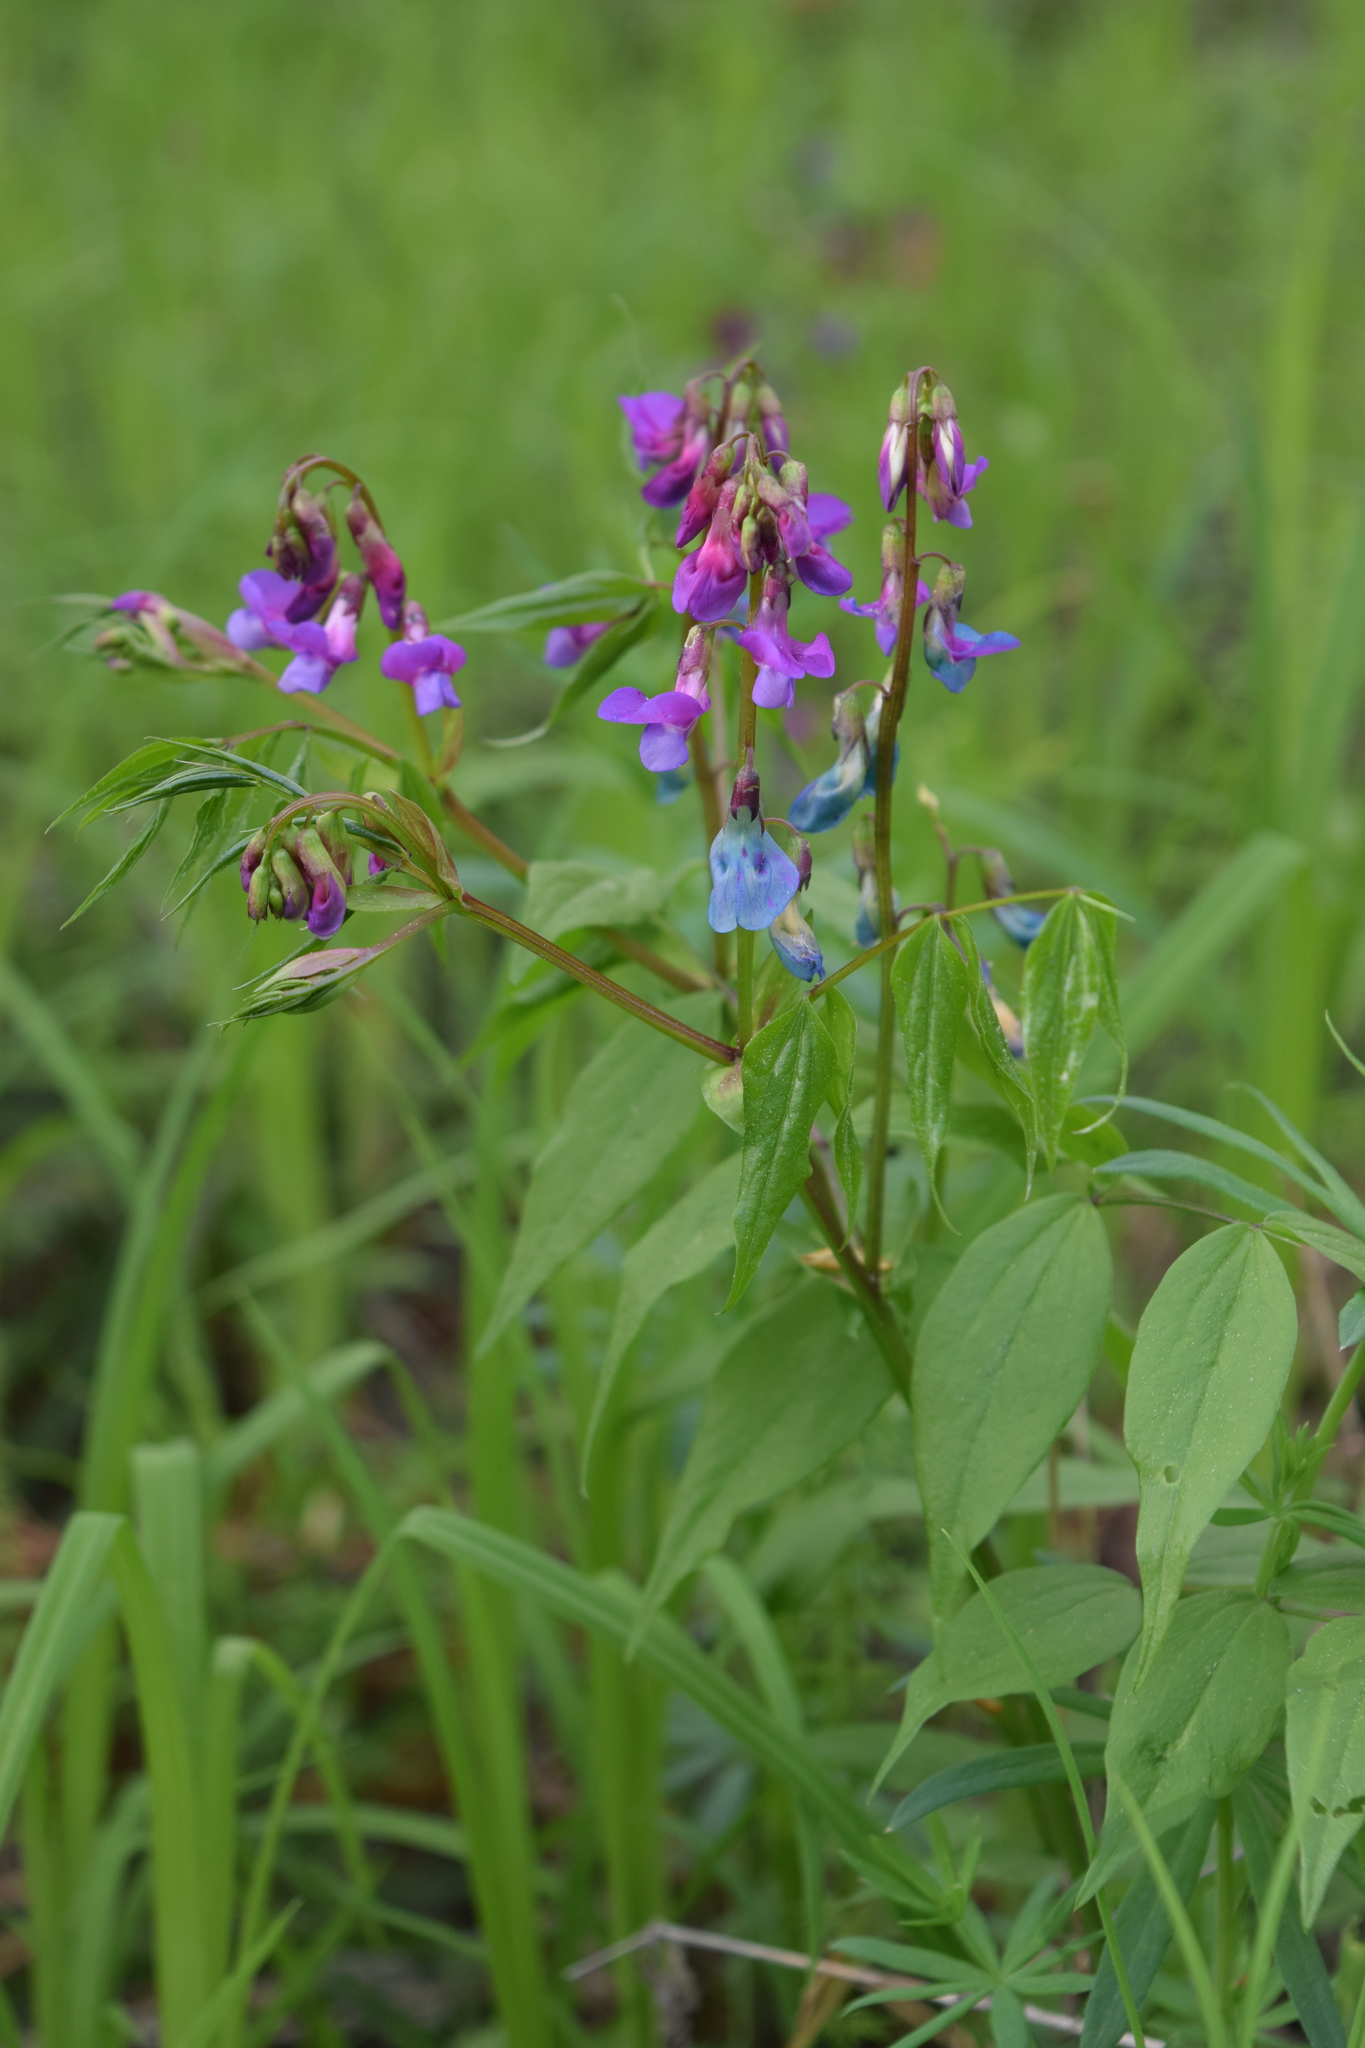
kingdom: Plantae
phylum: Tracheophyta
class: Magnoliopsida
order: Fabales
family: Fabaceae
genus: Lathyrus
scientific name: Lathyrus vernus
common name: Spring pea
